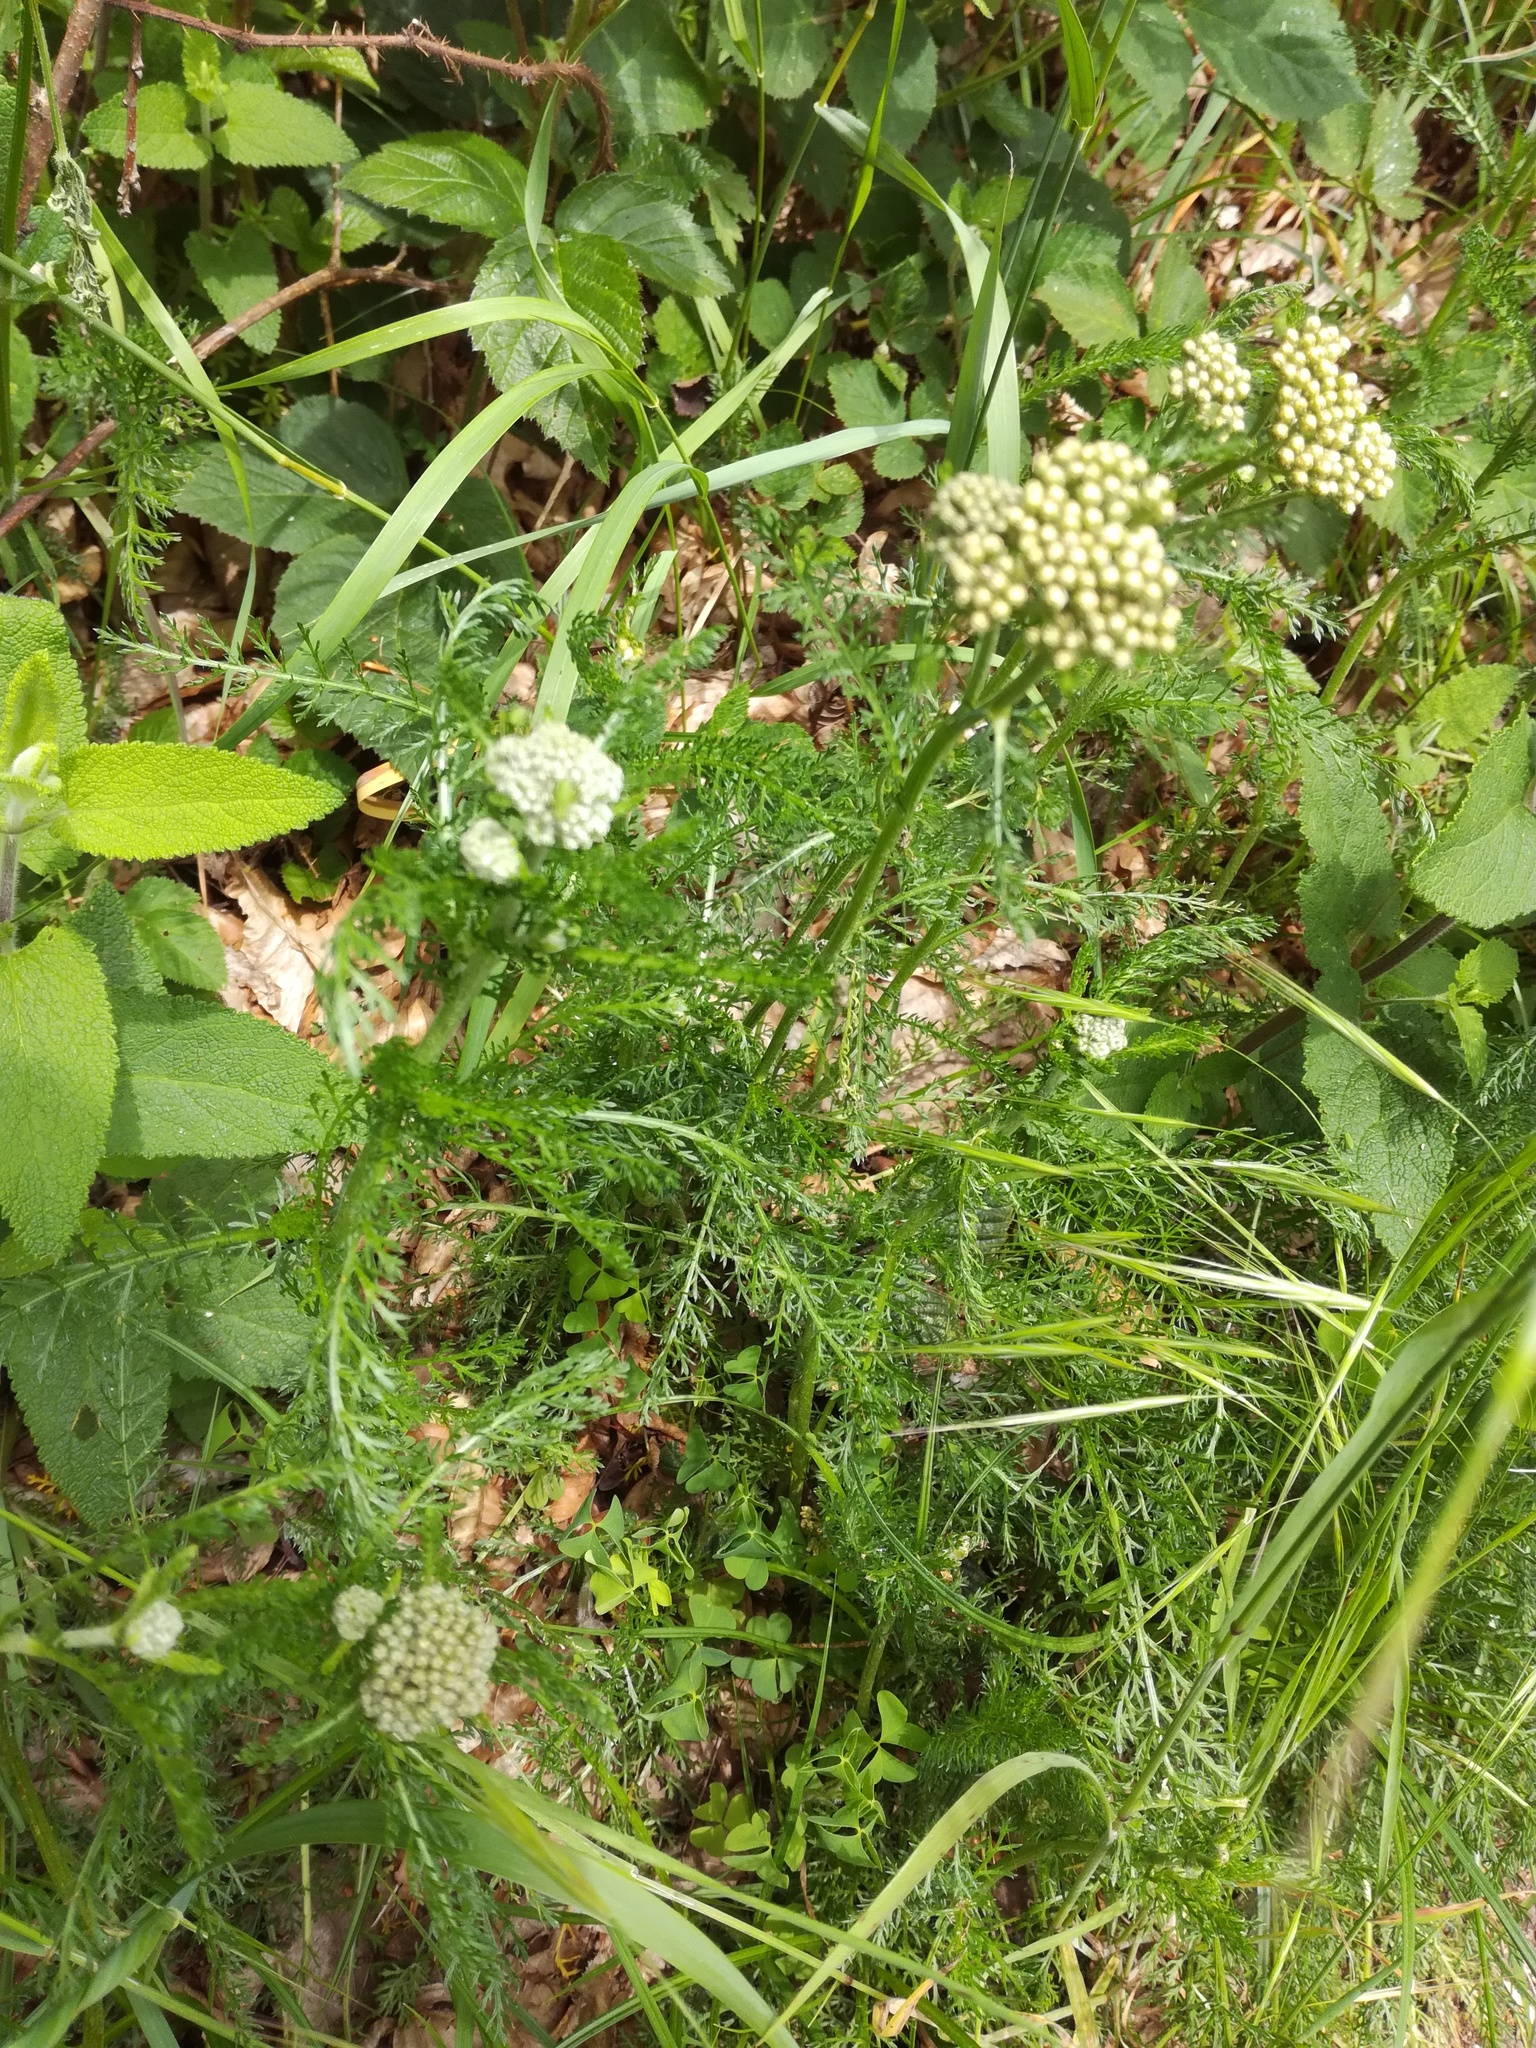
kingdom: Plantae
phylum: Tracheophyta
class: Magnoliopsida
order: Asterales
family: Asteraceae
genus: Achillea
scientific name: Achillea millefolium
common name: Yarrow
